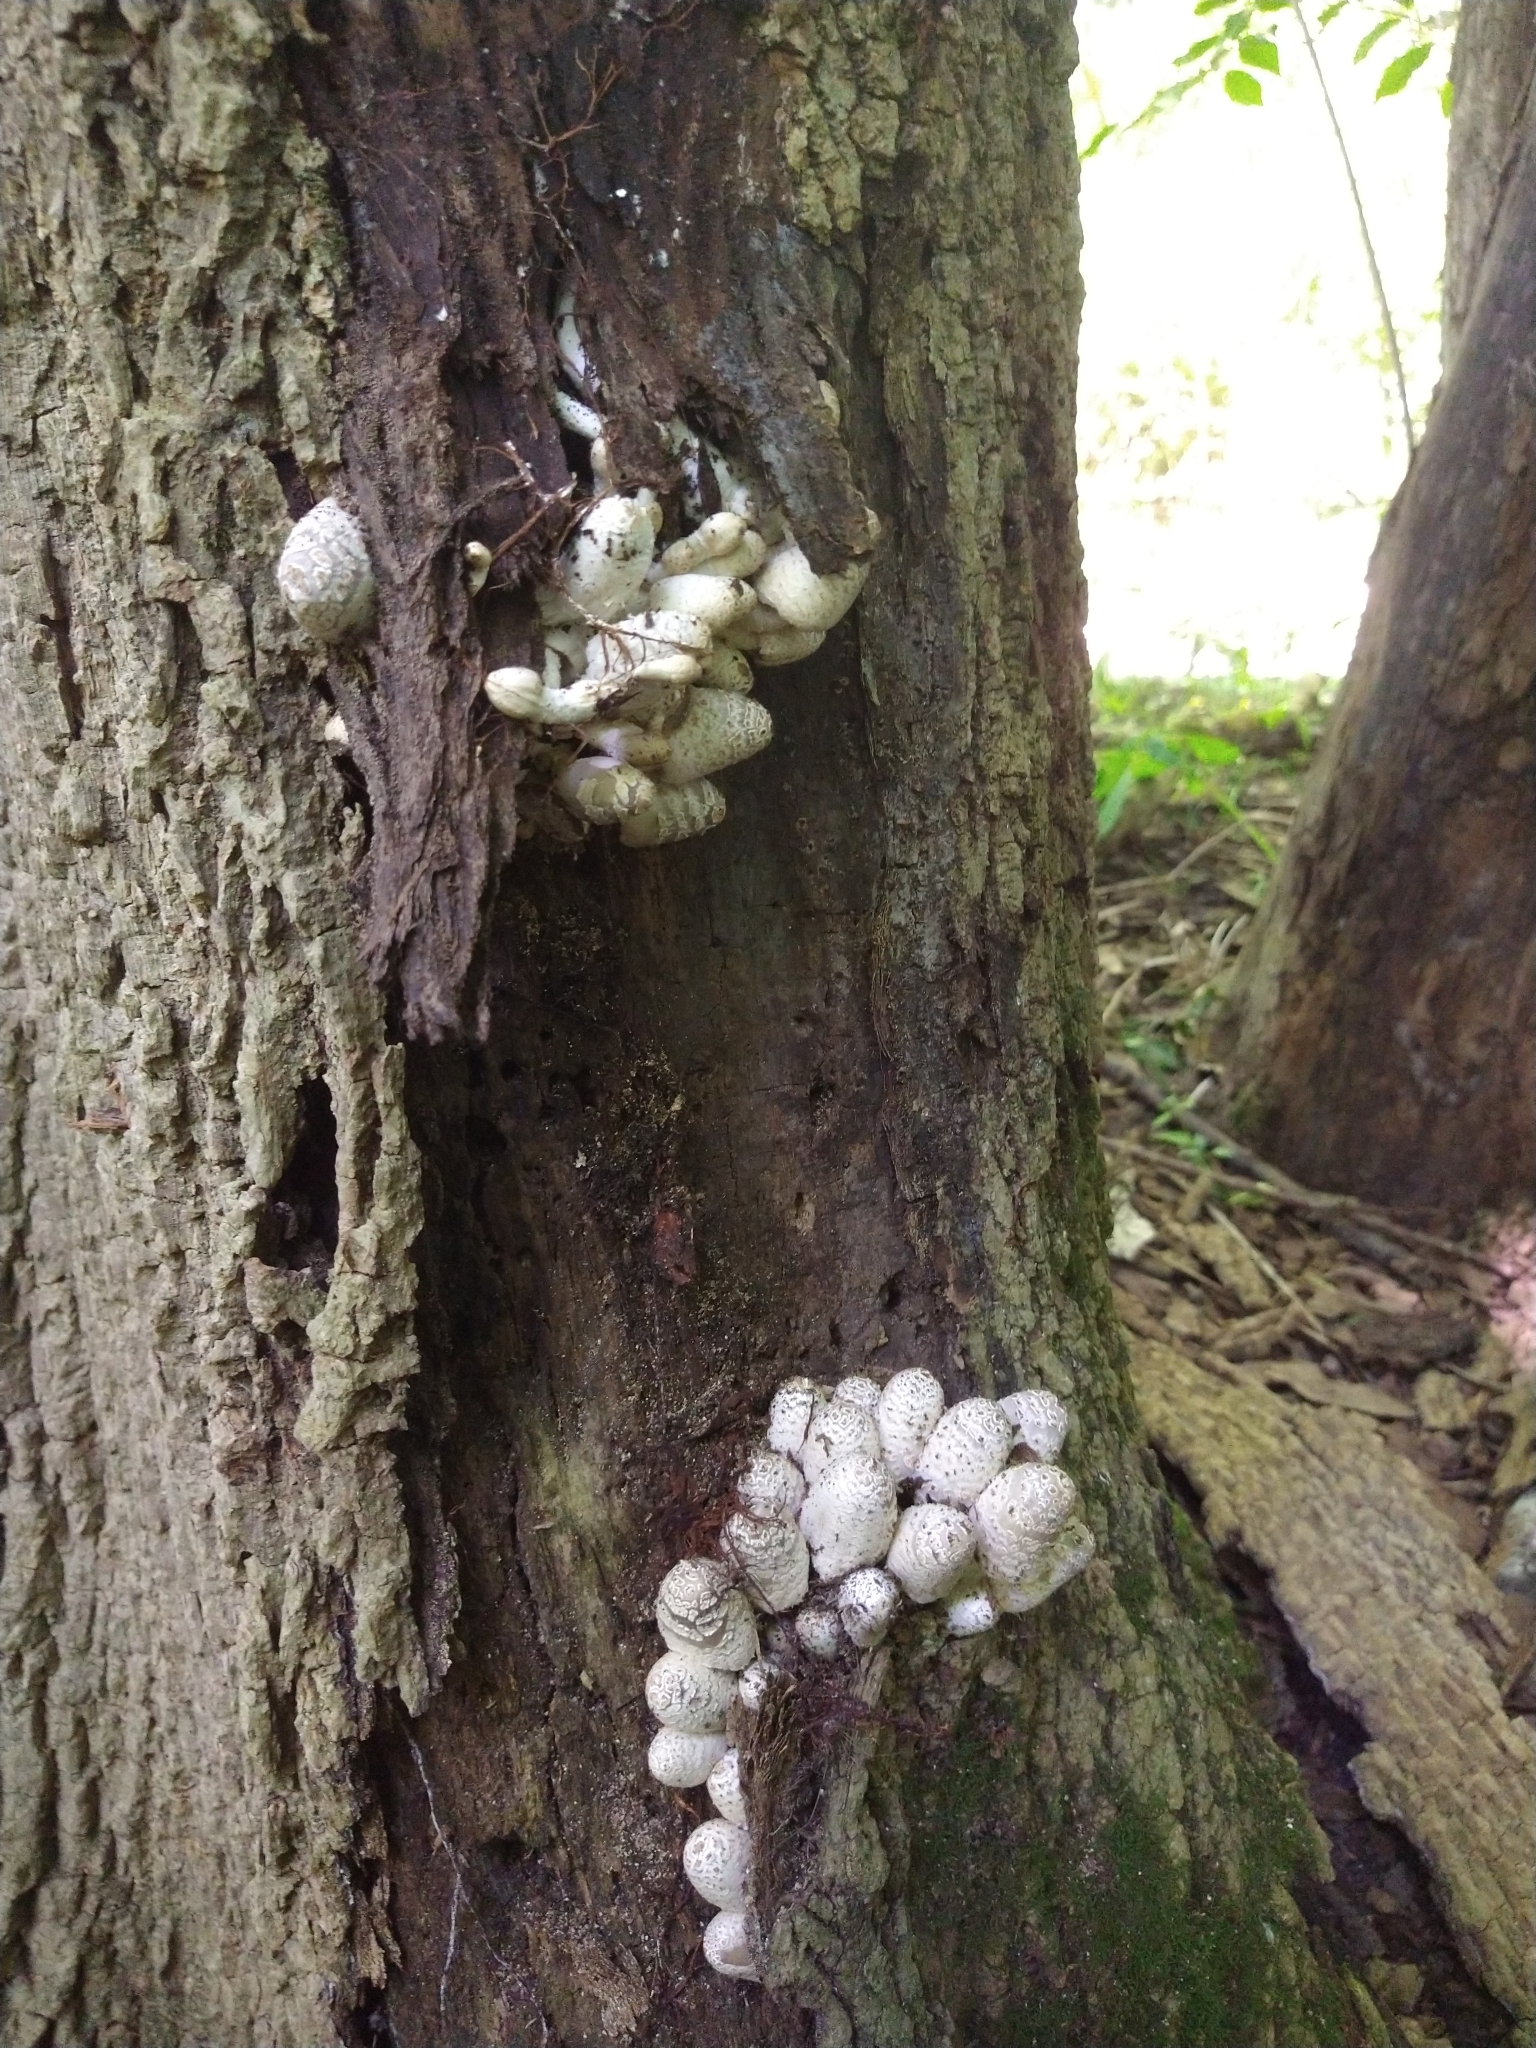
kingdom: Fungi
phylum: Basidiomycota
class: Agaricomycetes
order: Agaricales
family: Psathyrellaceae
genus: Coprinopsis
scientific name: Coprinopsis variegata
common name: Scaly ink cap
